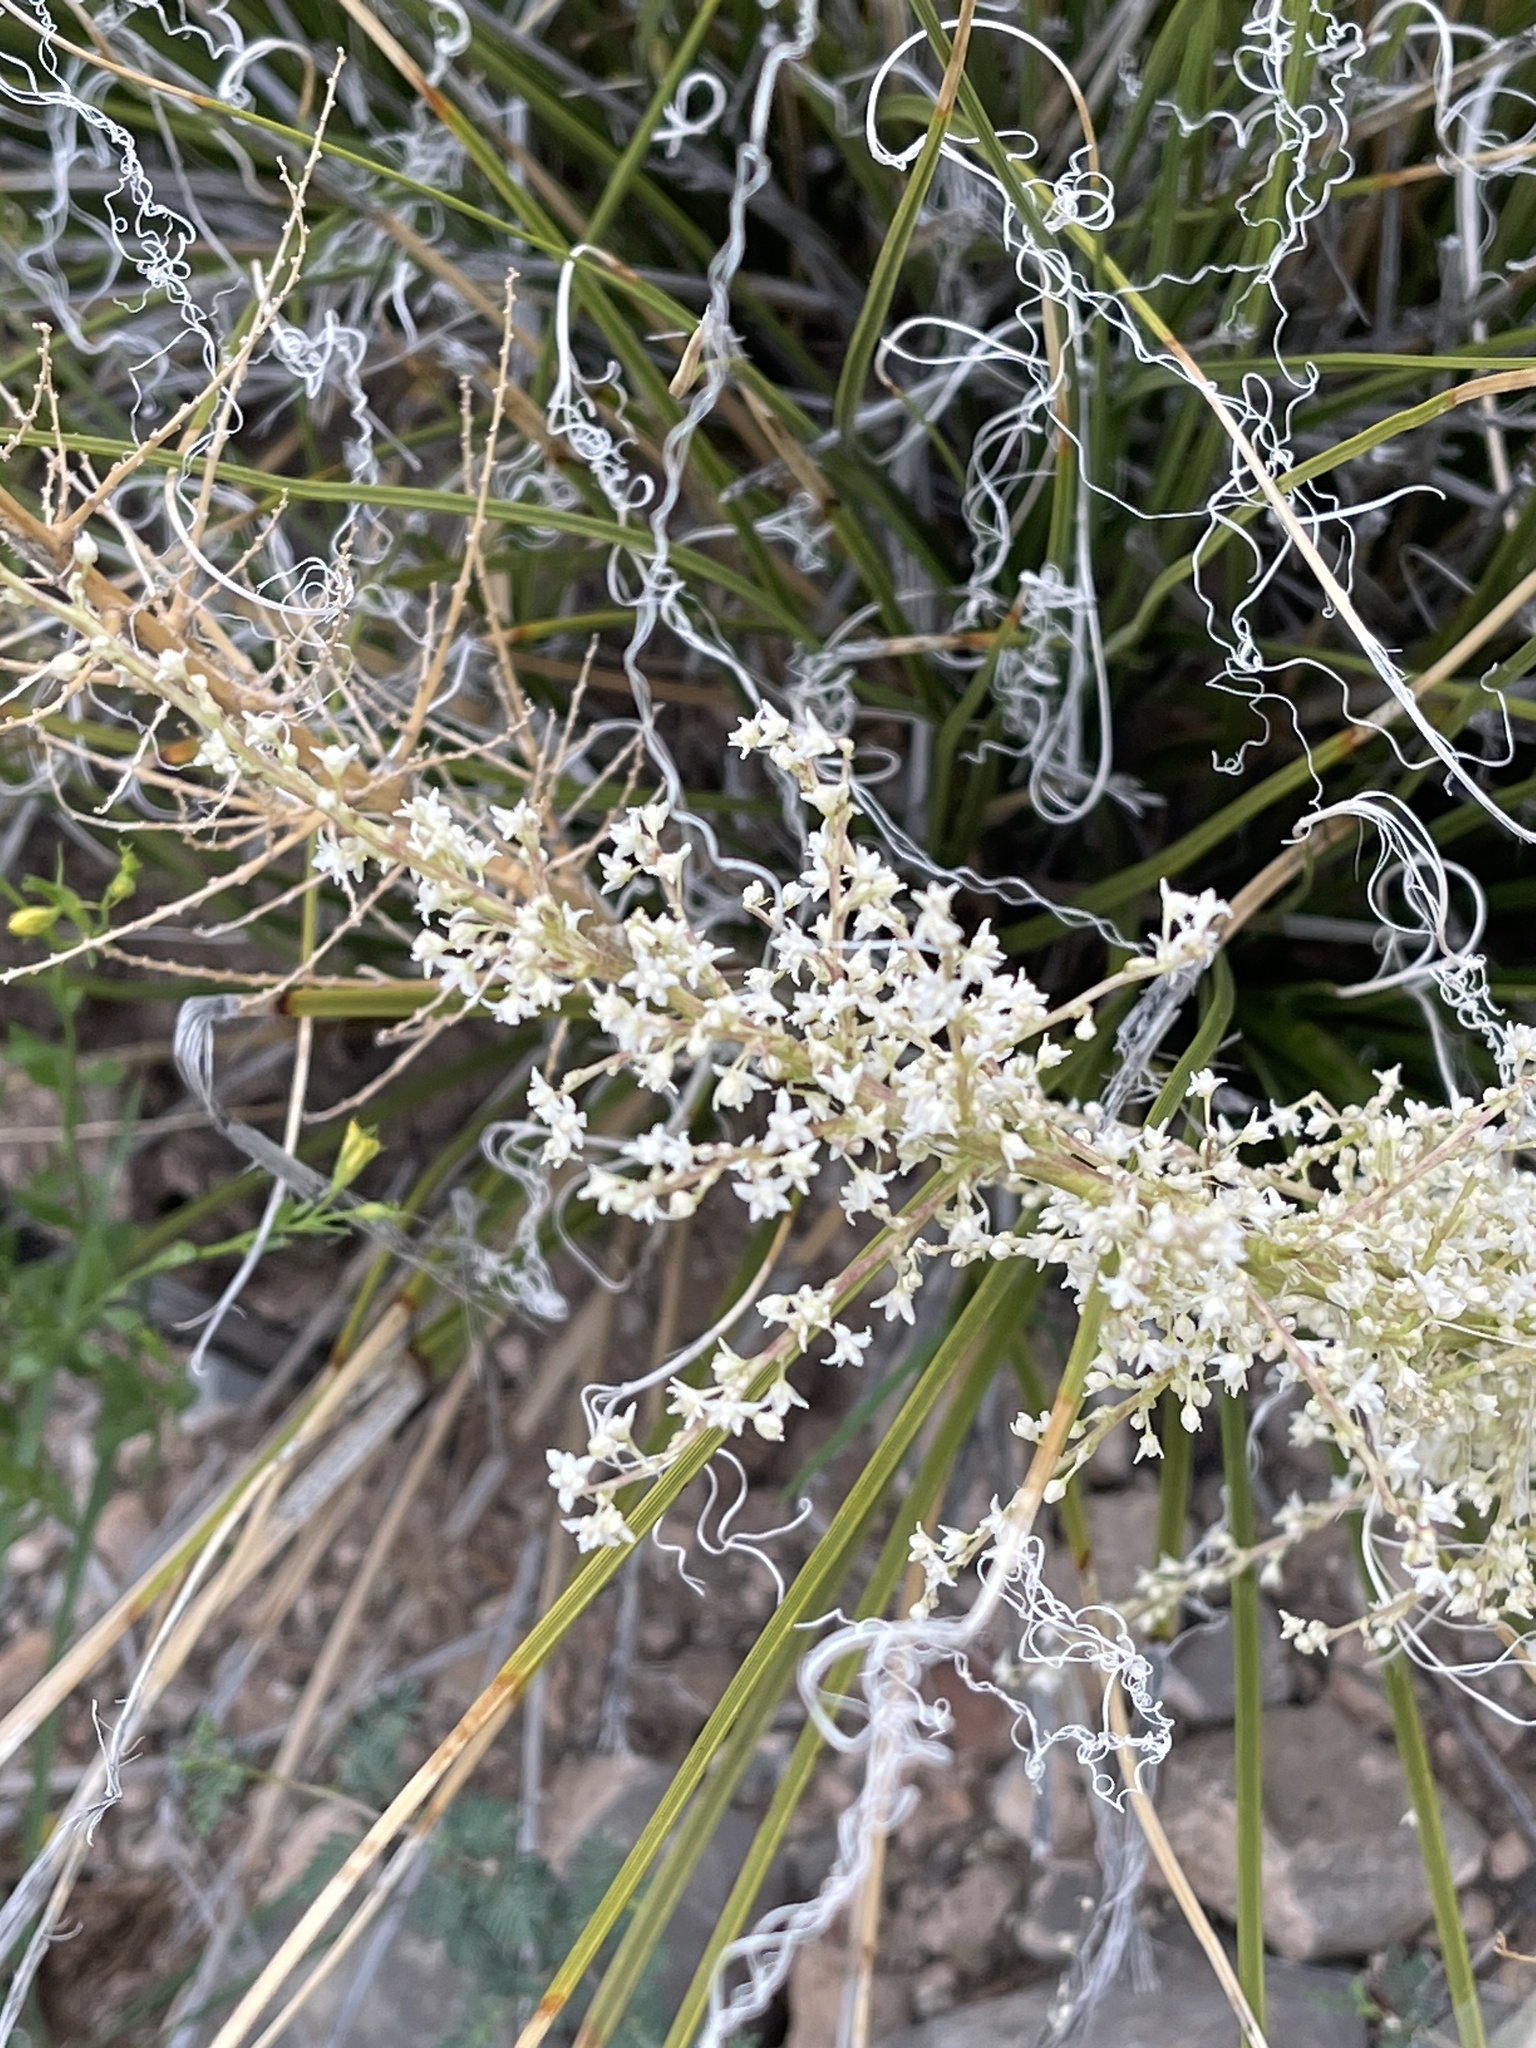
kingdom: Plantae
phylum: Tracheophyta
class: Liliopsida
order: Asparagales
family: Asparagaceae
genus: Nolina
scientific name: Nolina texana
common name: Texas sacahuiste
